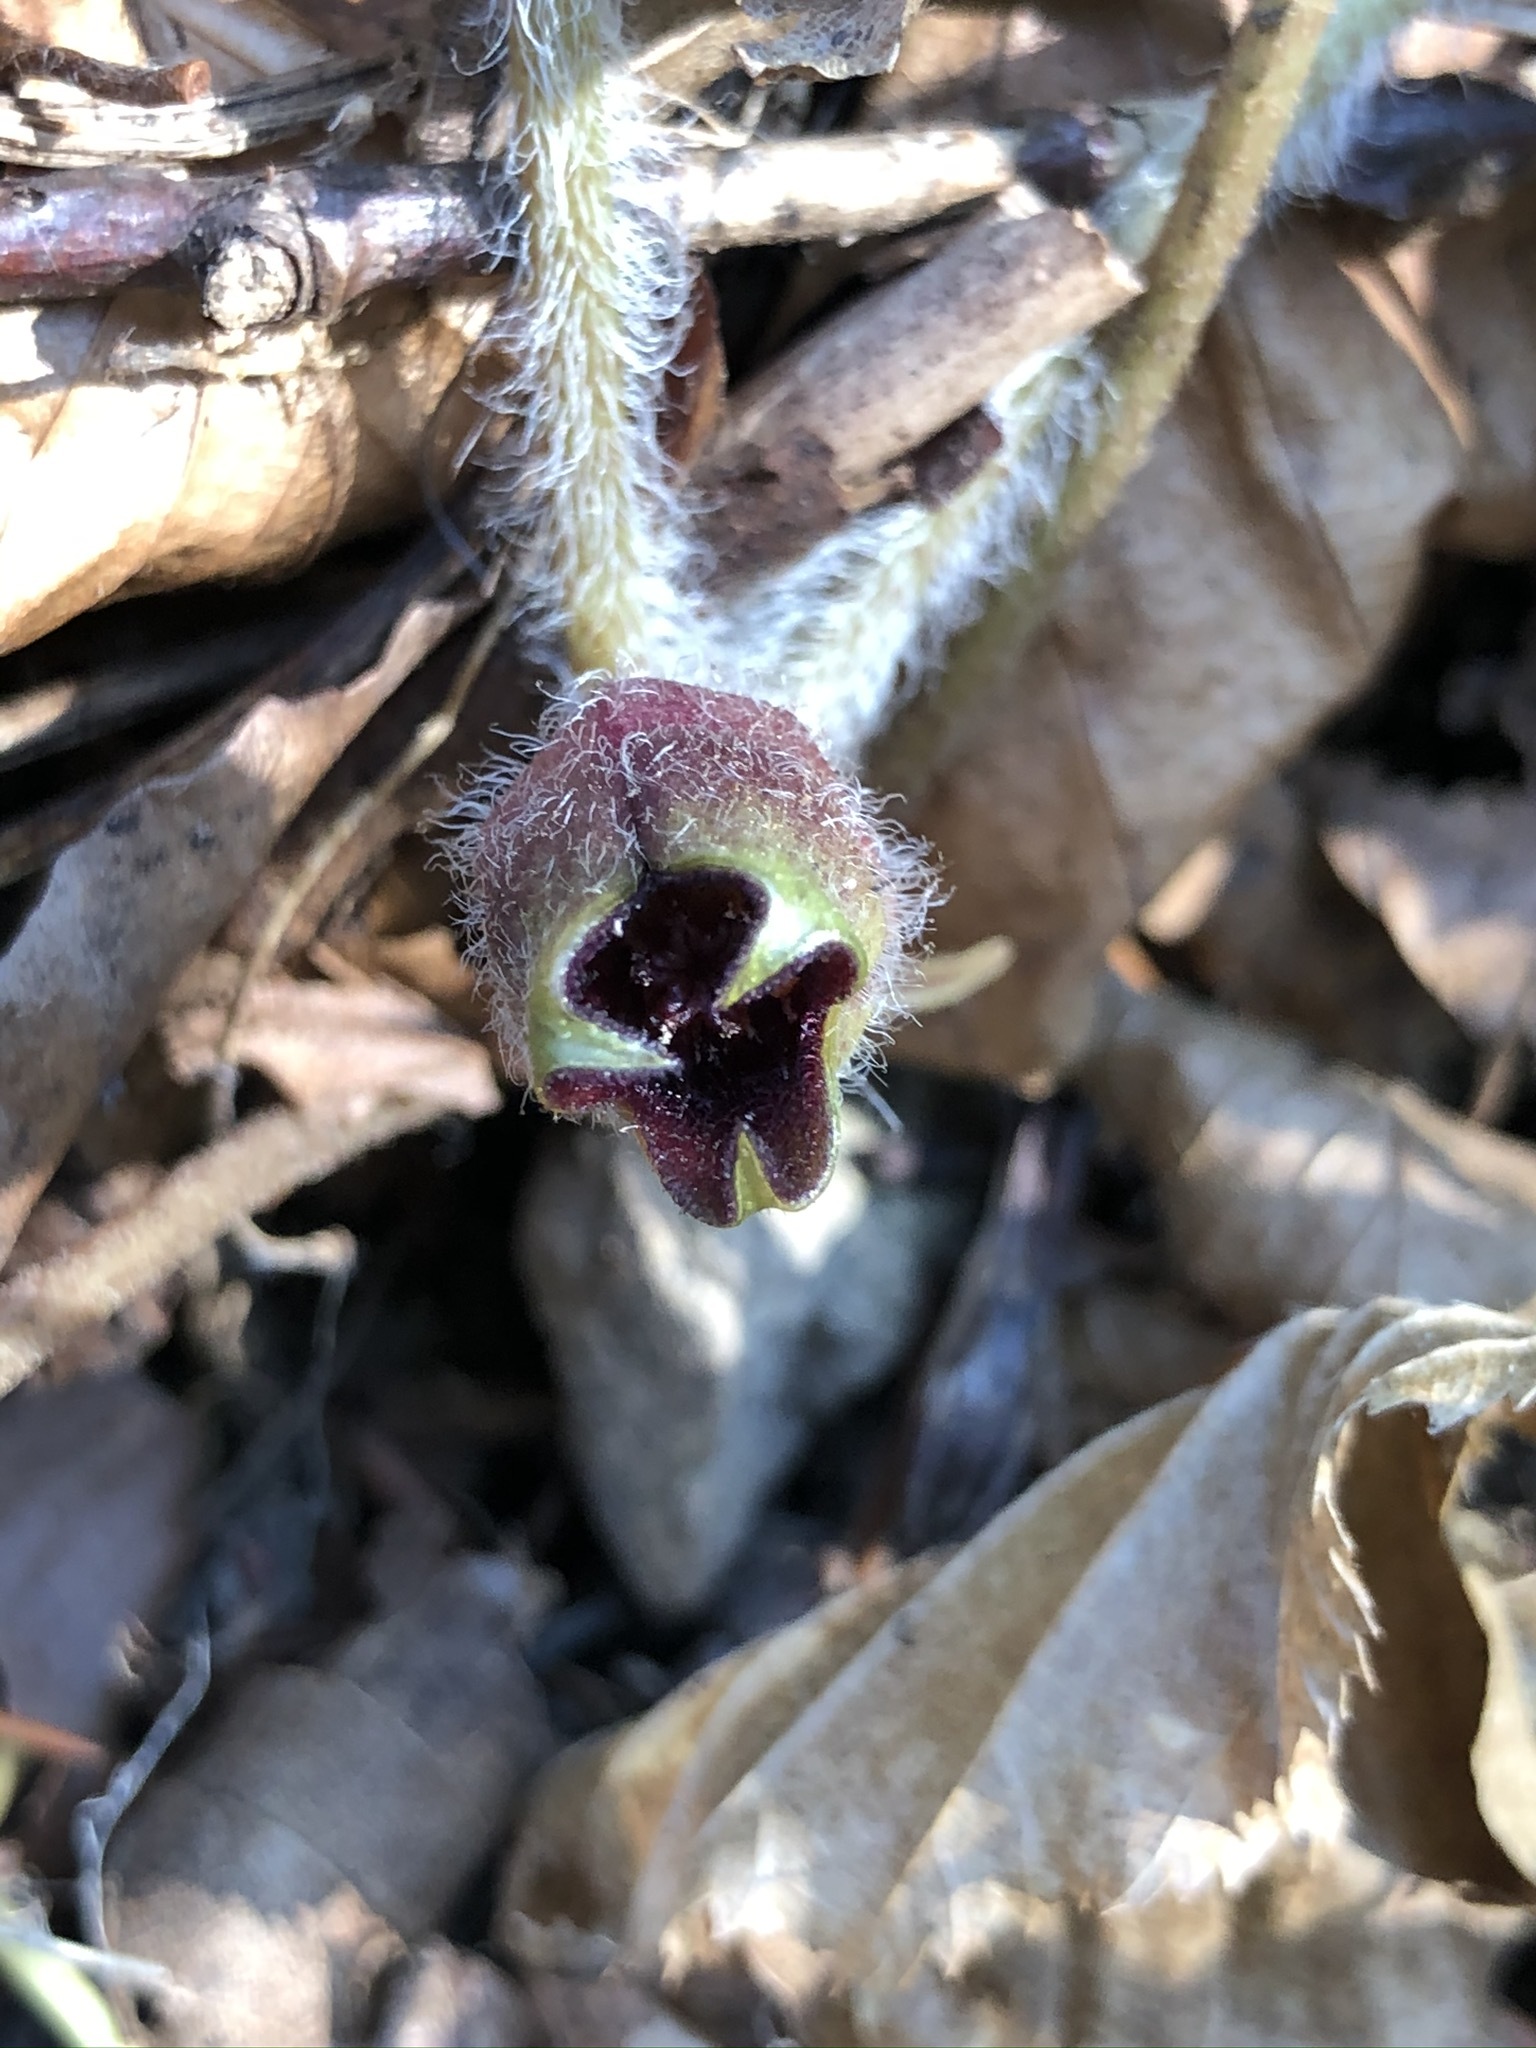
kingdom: Plantae
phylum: Tracheophyta
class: Magnoliopsida
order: Piperales
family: Aristolochiaceae
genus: Asarum
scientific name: Asarum europaeum
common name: Asarabacca
